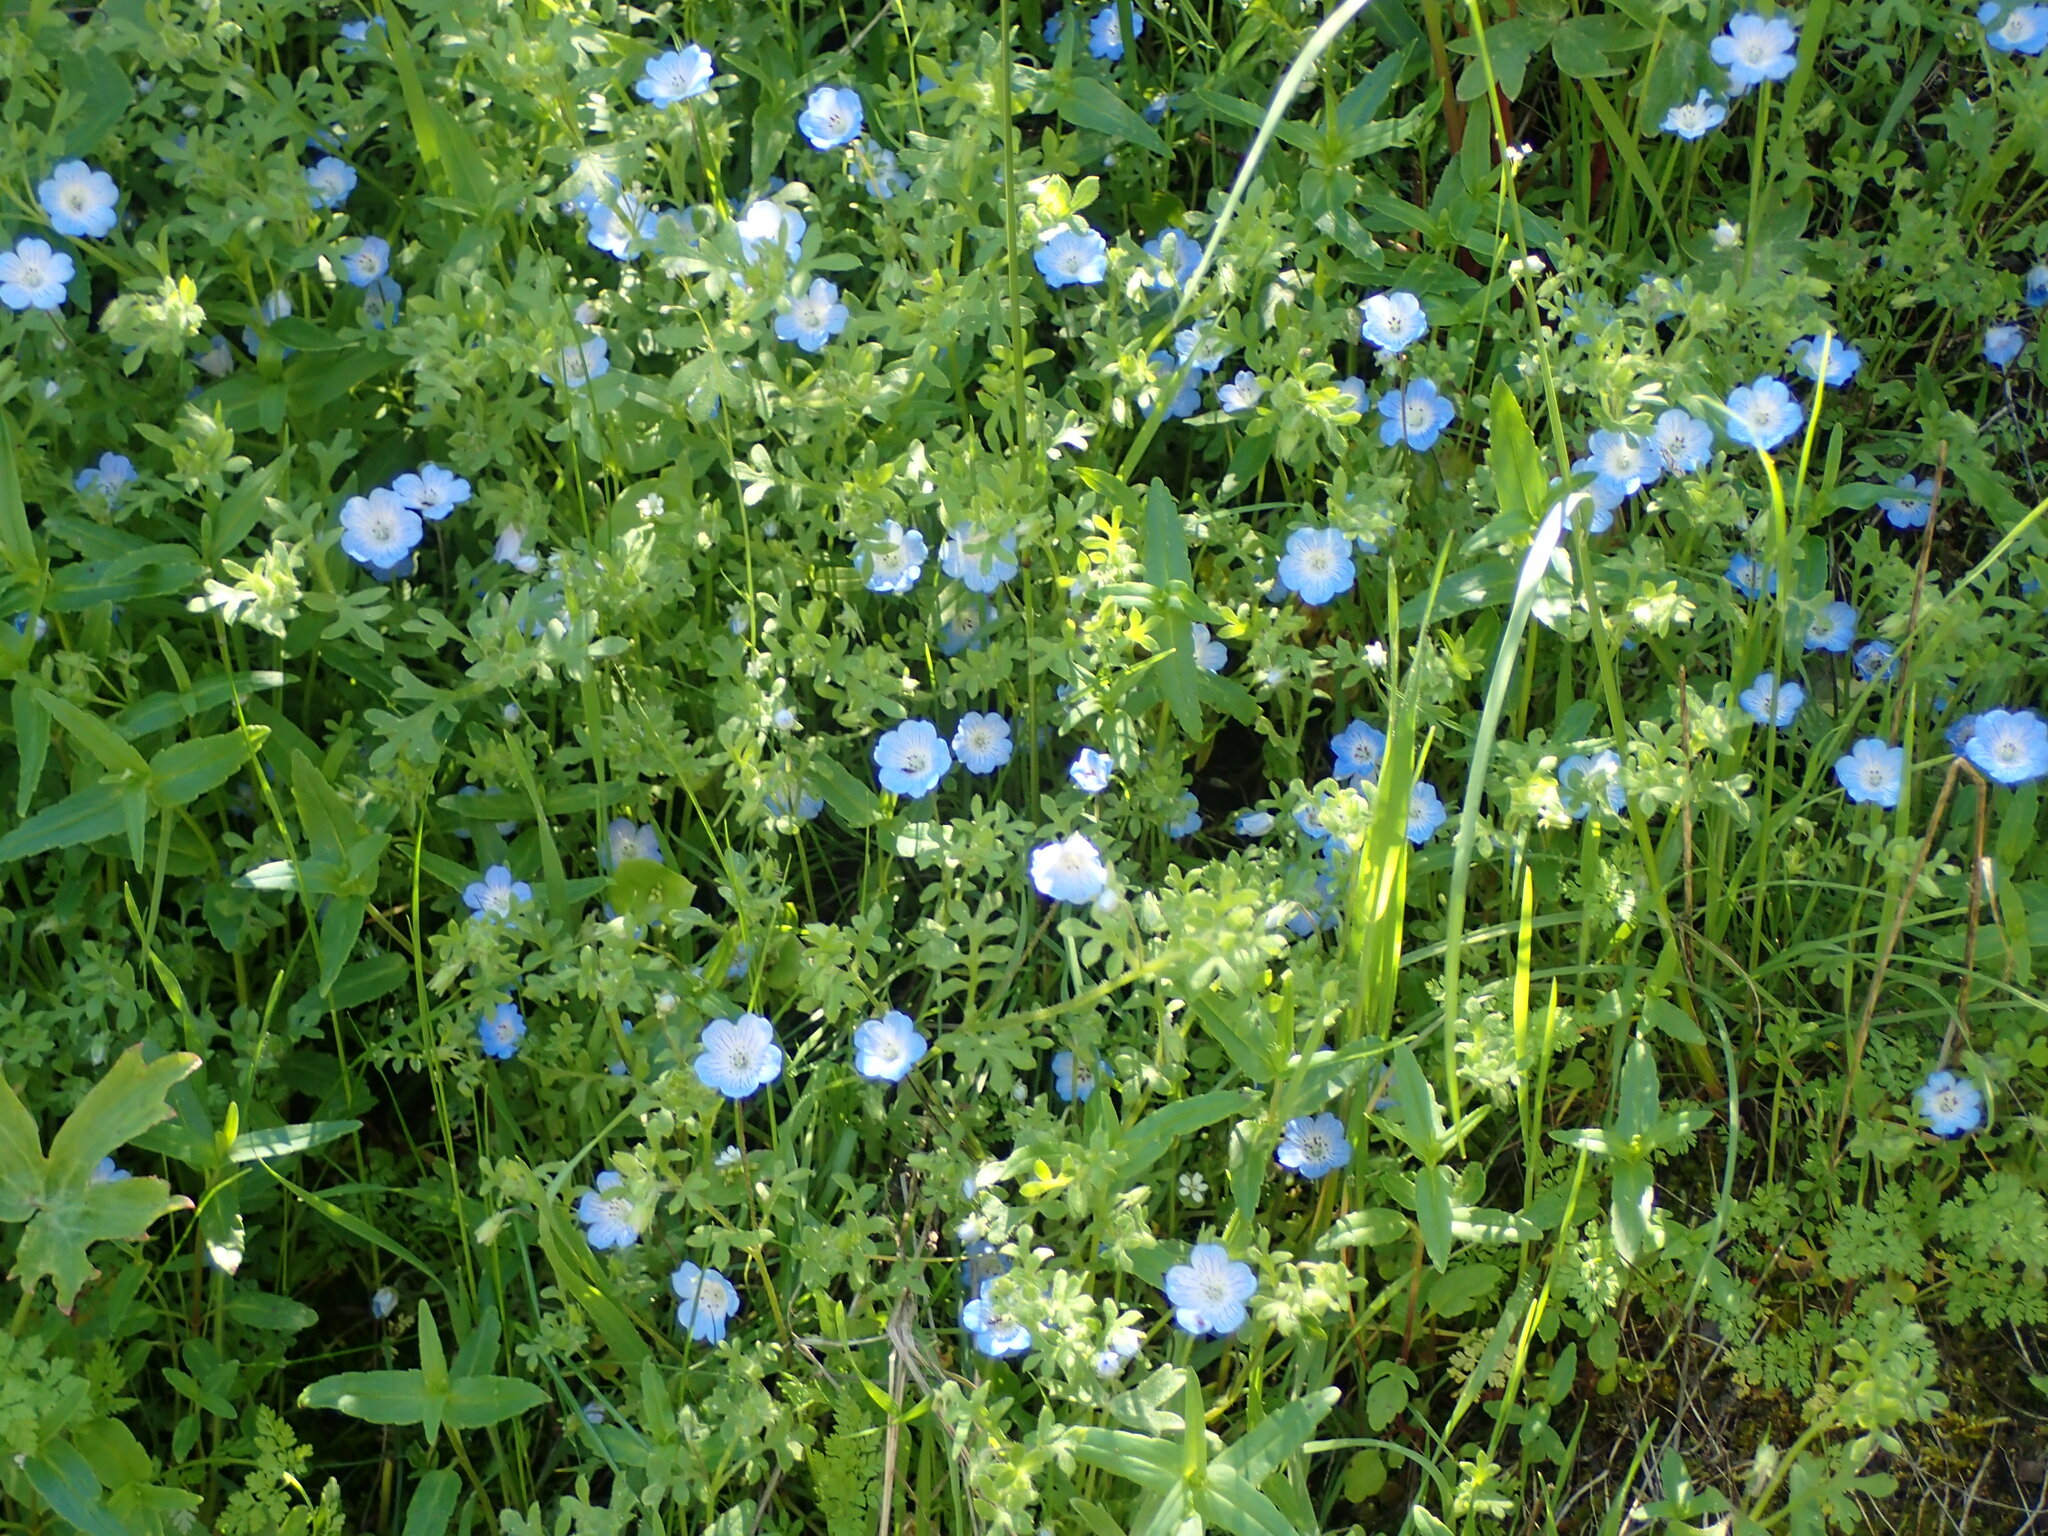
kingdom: Plantae
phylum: Tracheophyta
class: Magnoliopsida
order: Boraginales
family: Hydrophyllaceae
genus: Nemophila
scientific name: Nemophila menziesii
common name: Baby's-blue-eyes
